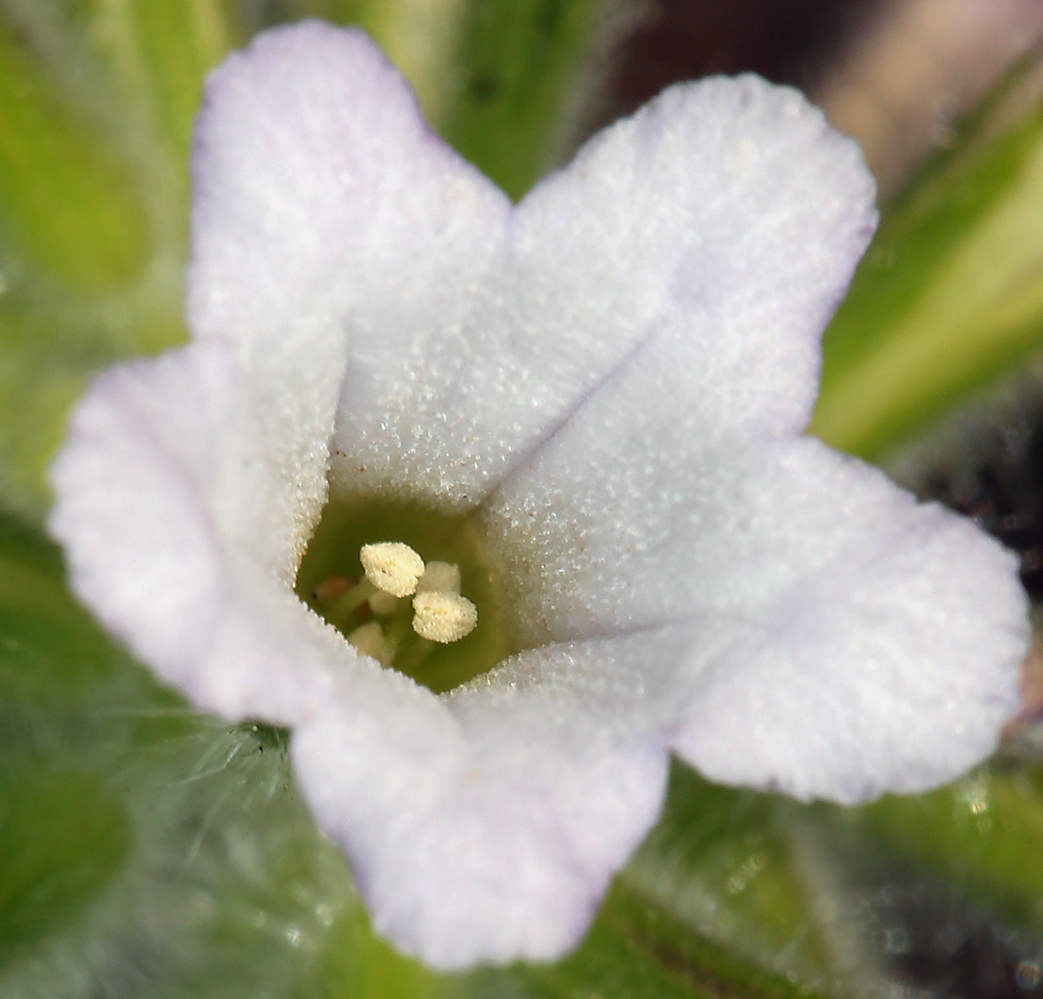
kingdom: Plantae
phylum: Tracheophyta
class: Magnoliopsida
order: Boraginales
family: Hydrophyllaceae
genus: Draperia
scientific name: Draperia systyla
